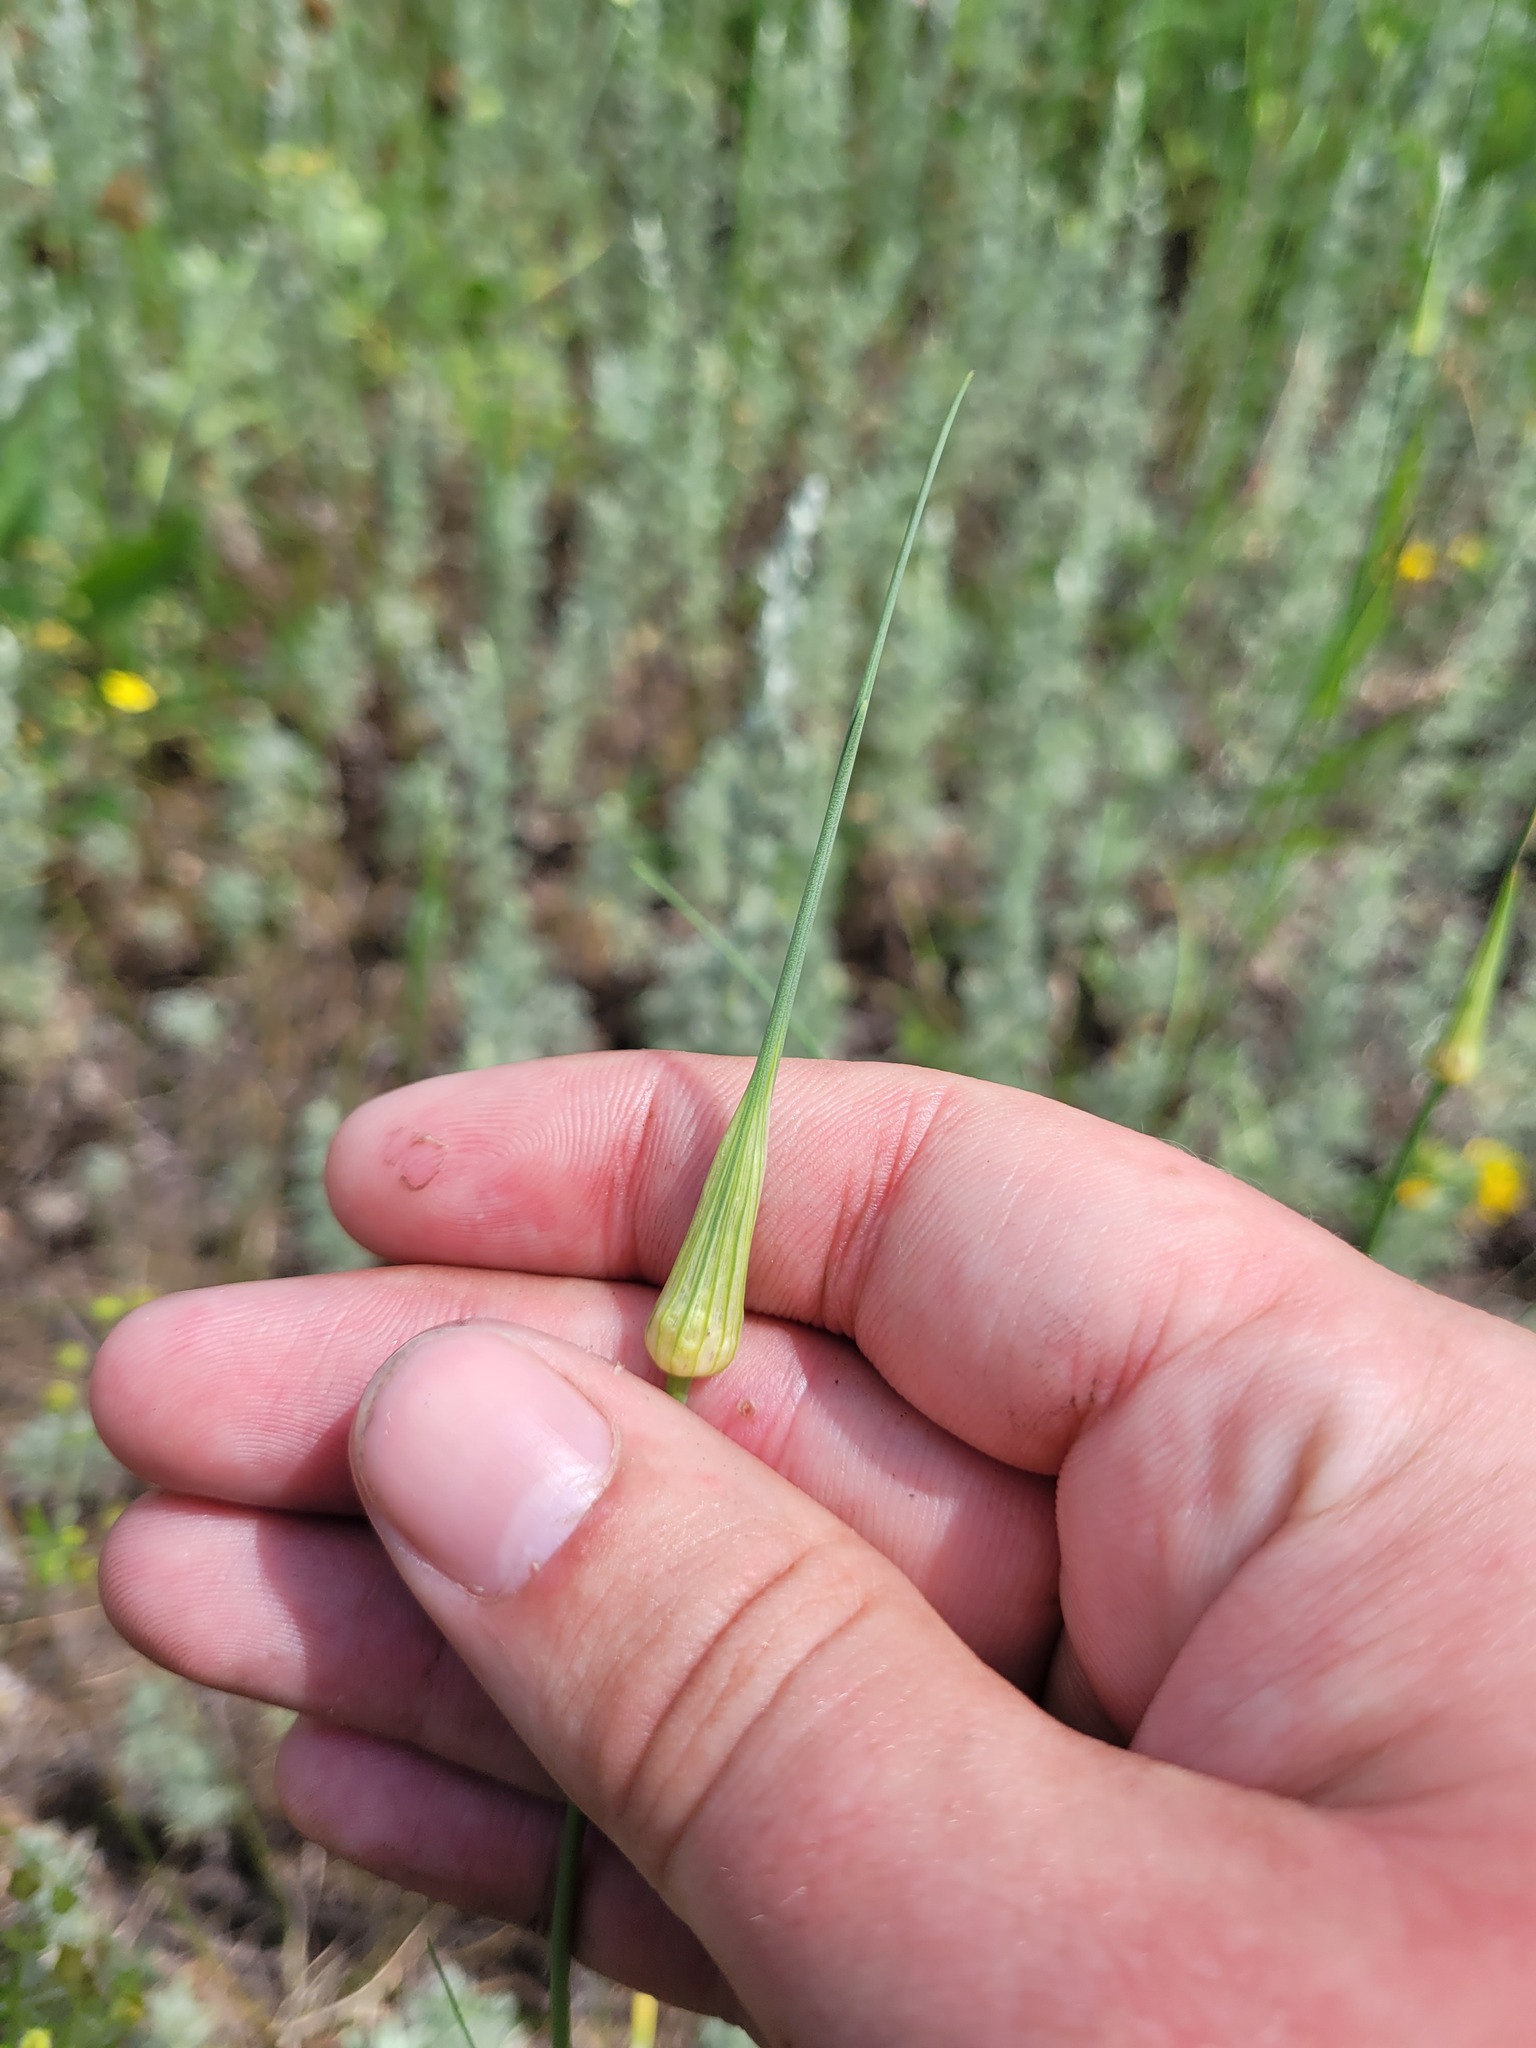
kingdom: Plantae
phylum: Tracheophyta
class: Liliopsida
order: Asparagales
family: Amaryllidaceae
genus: Allium
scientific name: Allium oleraceum
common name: Field garlic
